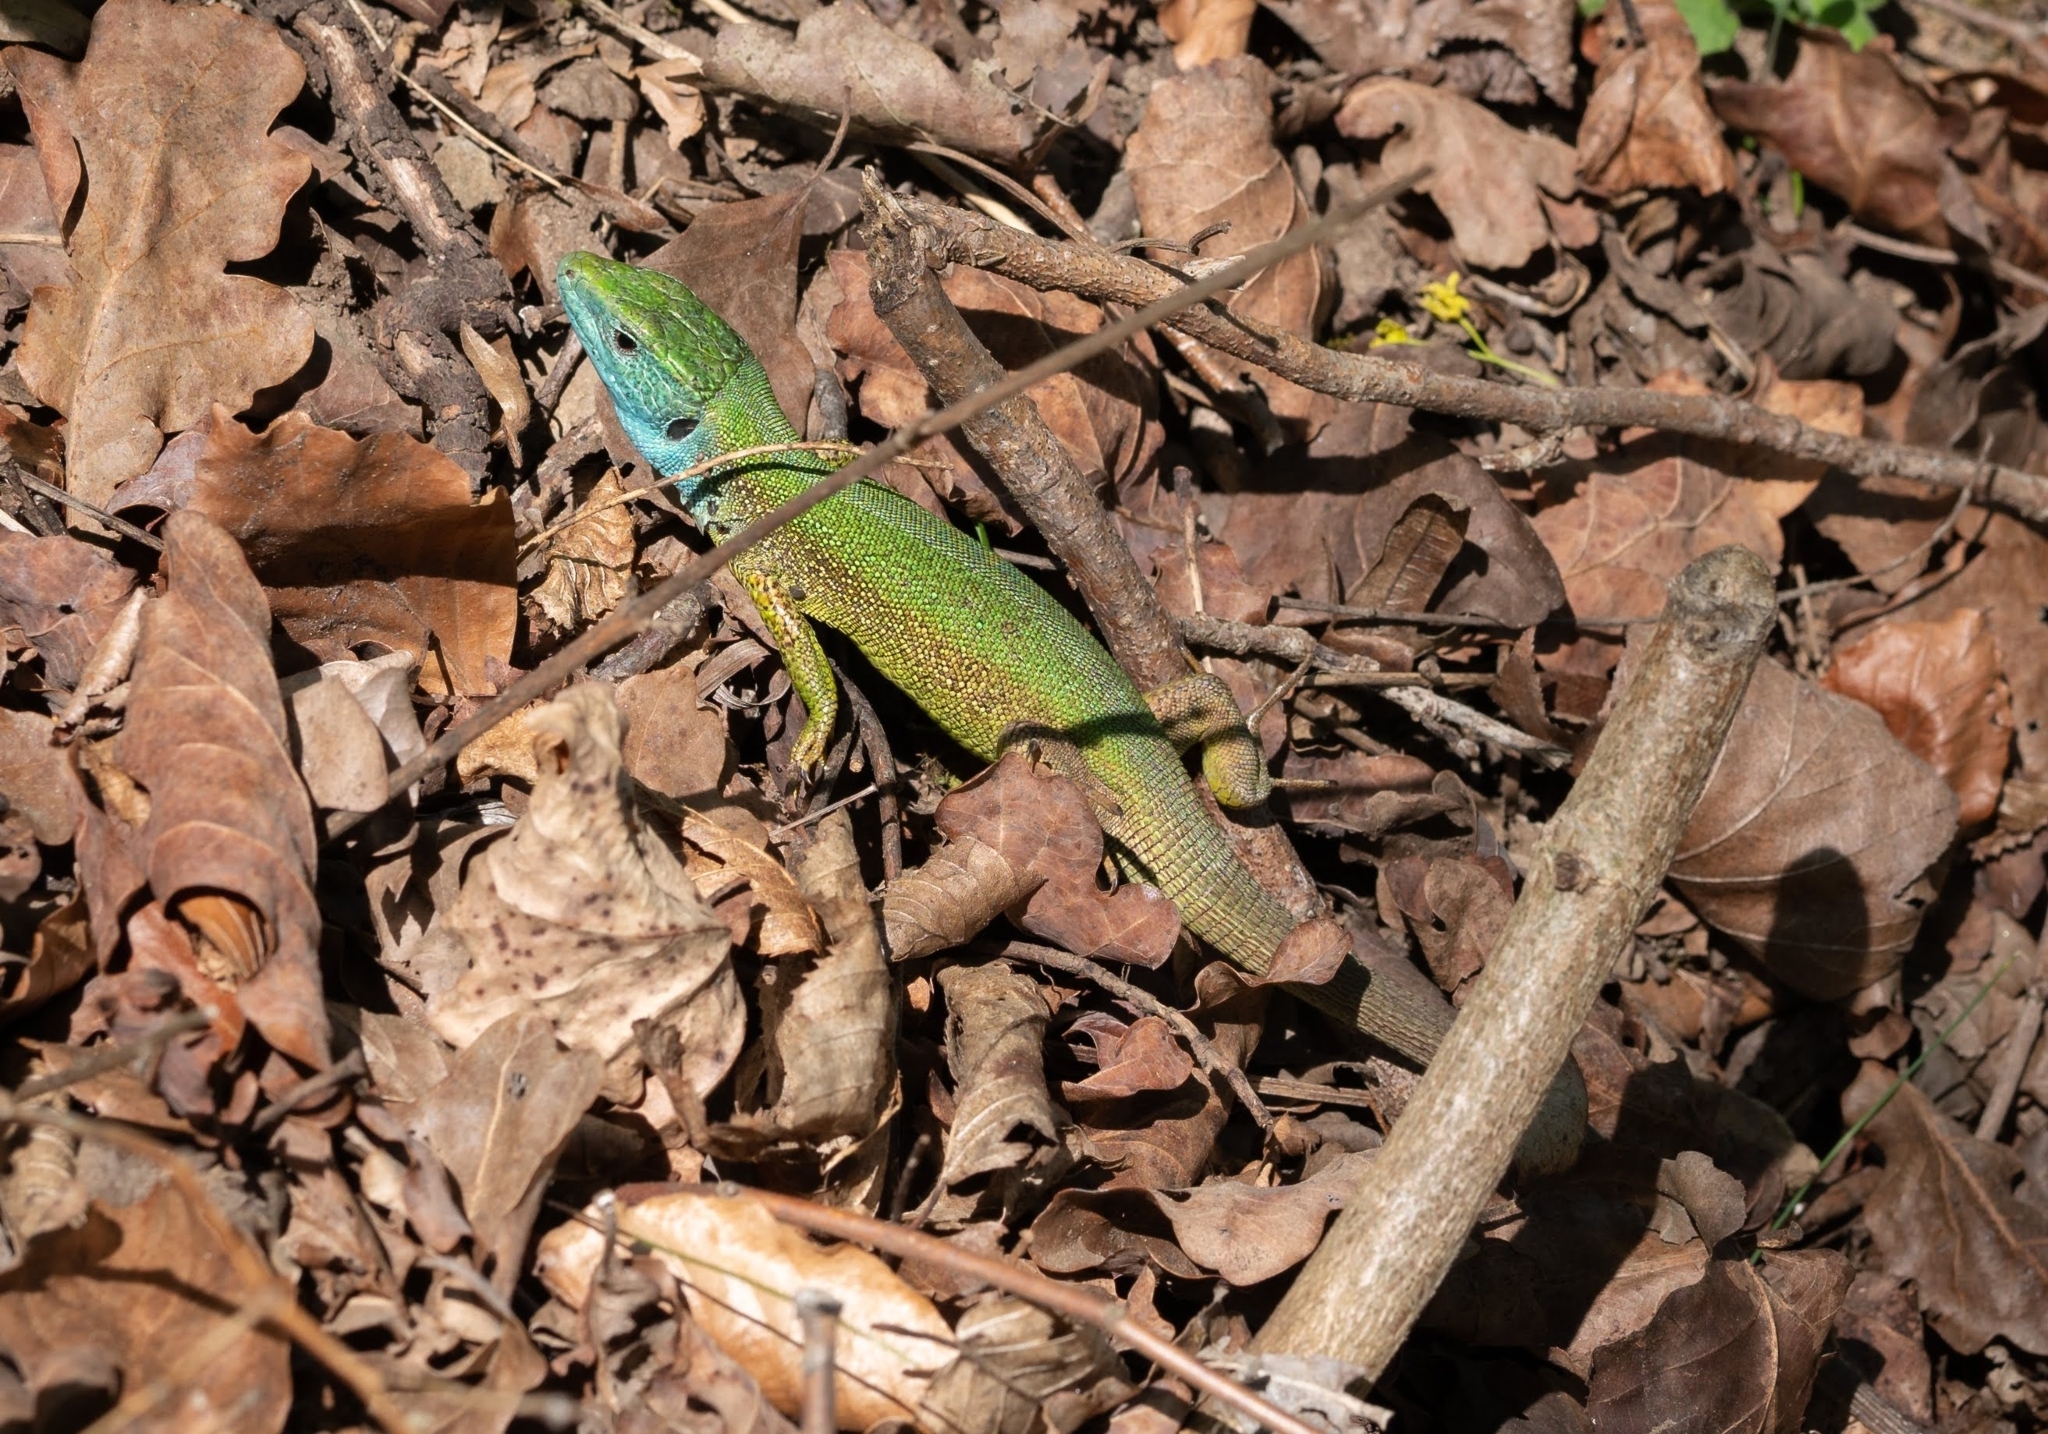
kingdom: Animalia
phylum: Chordata
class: Squamata
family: Lacertidae
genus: Lacerta
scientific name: Lacerta viridis
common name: European green lizard
